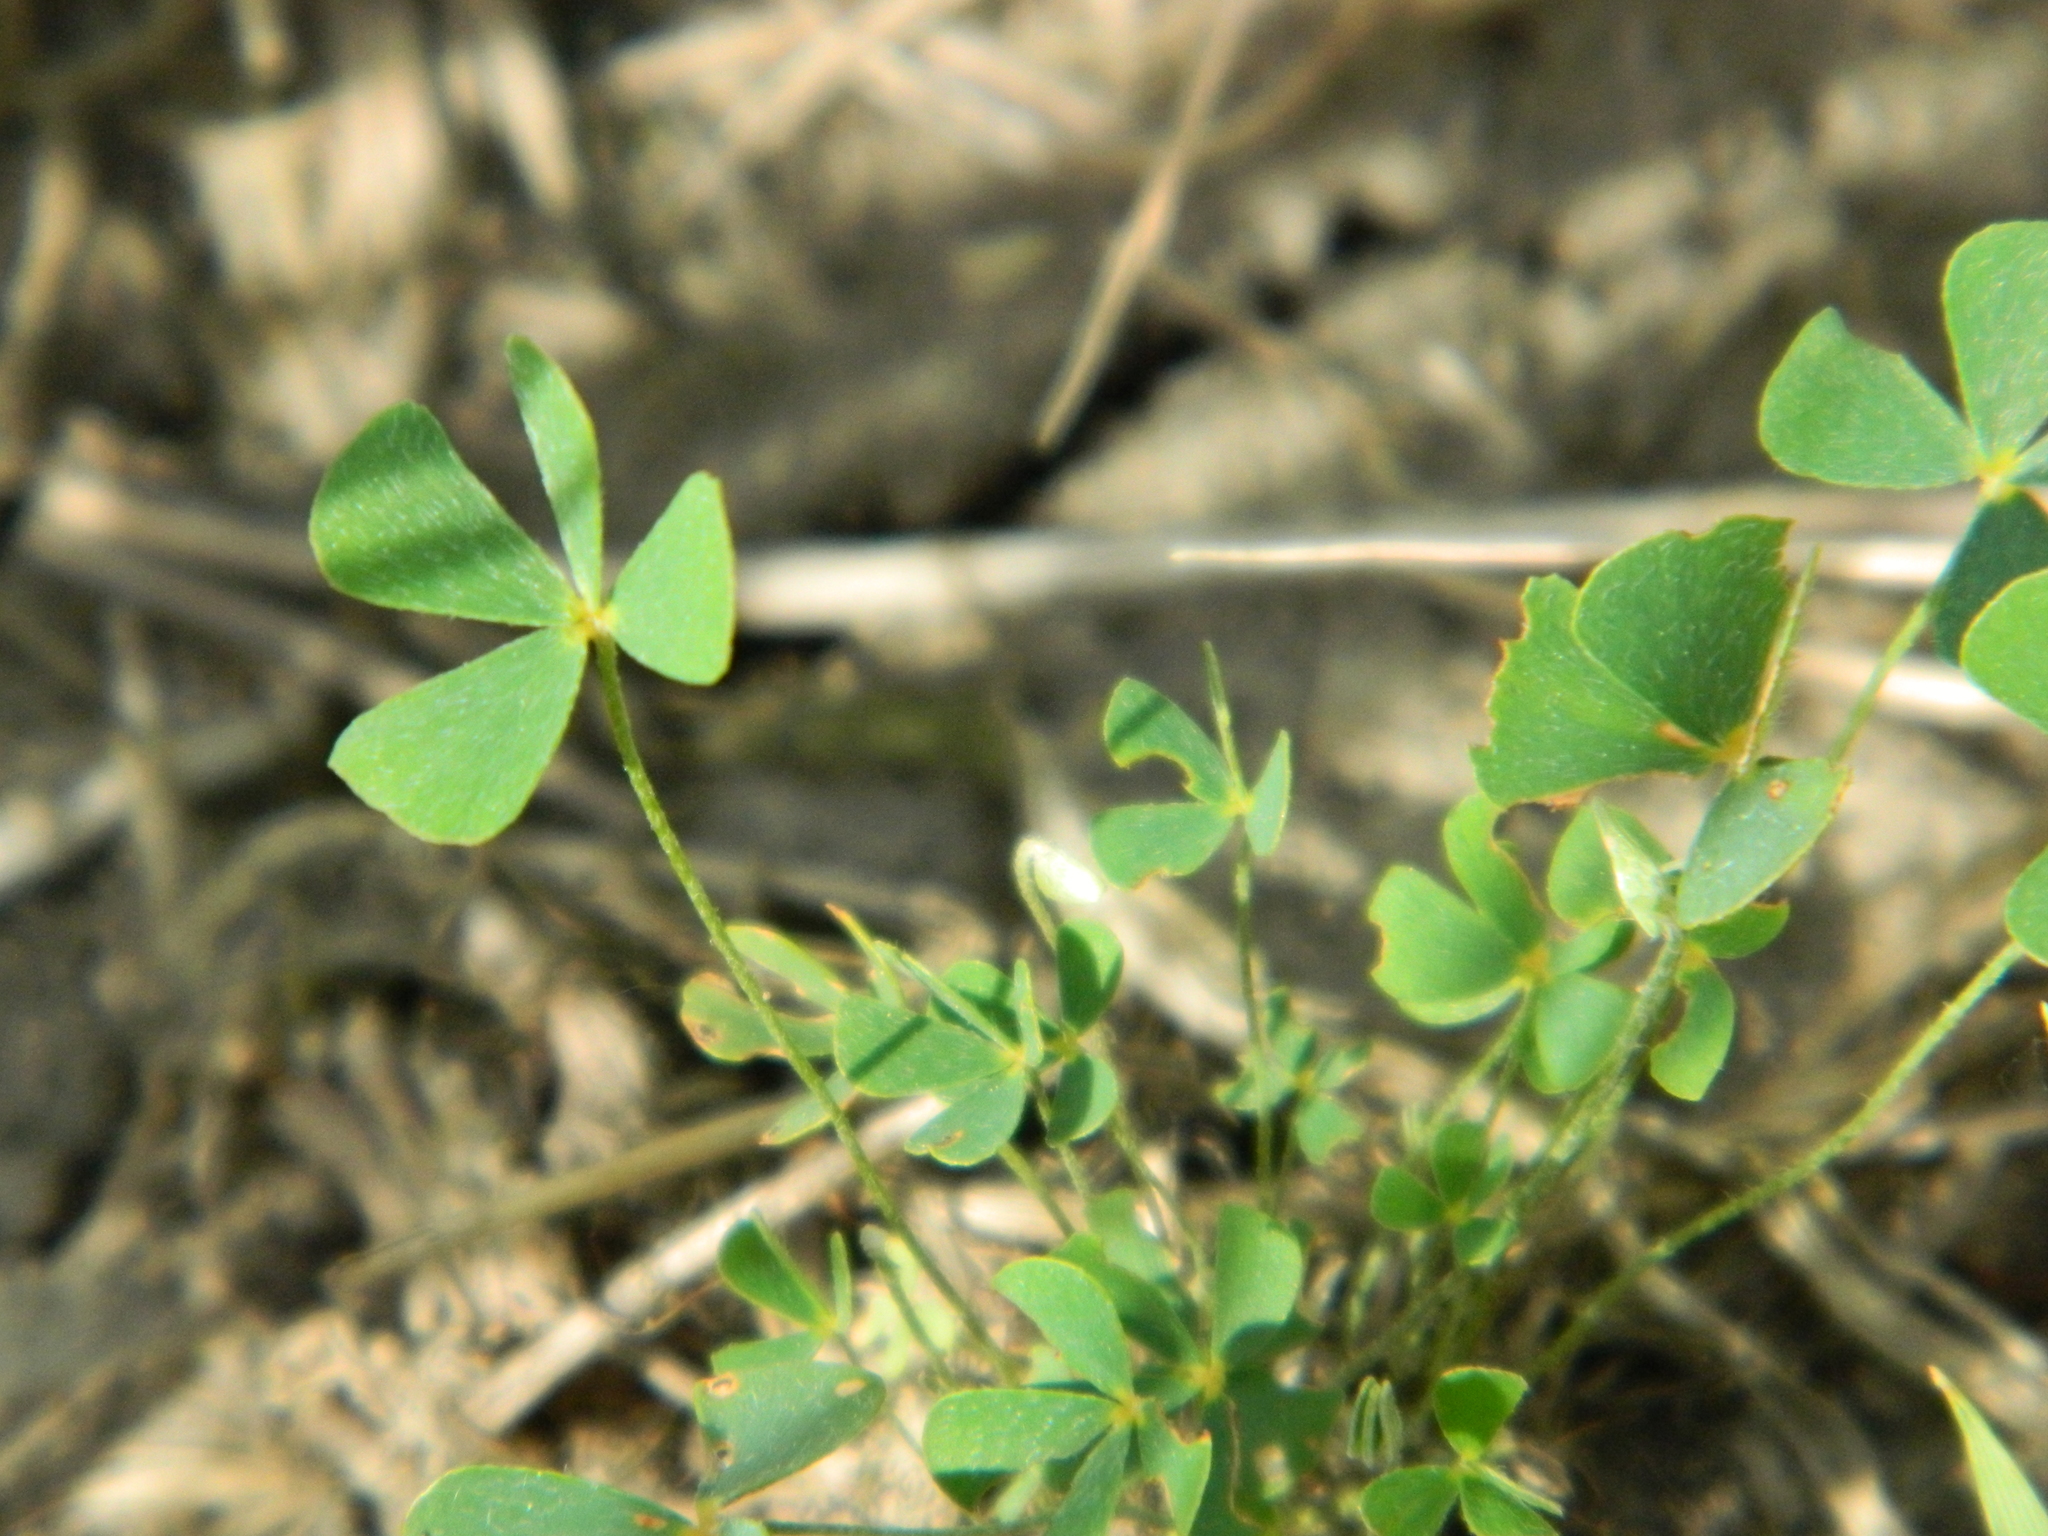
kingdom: Plantae
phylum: Tracheophyta
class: Polypodiopsida
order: Salviniales
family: Marsileaceae
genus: Marsilea
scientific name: Marsilea vestita
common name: Hooked-pepperwort
